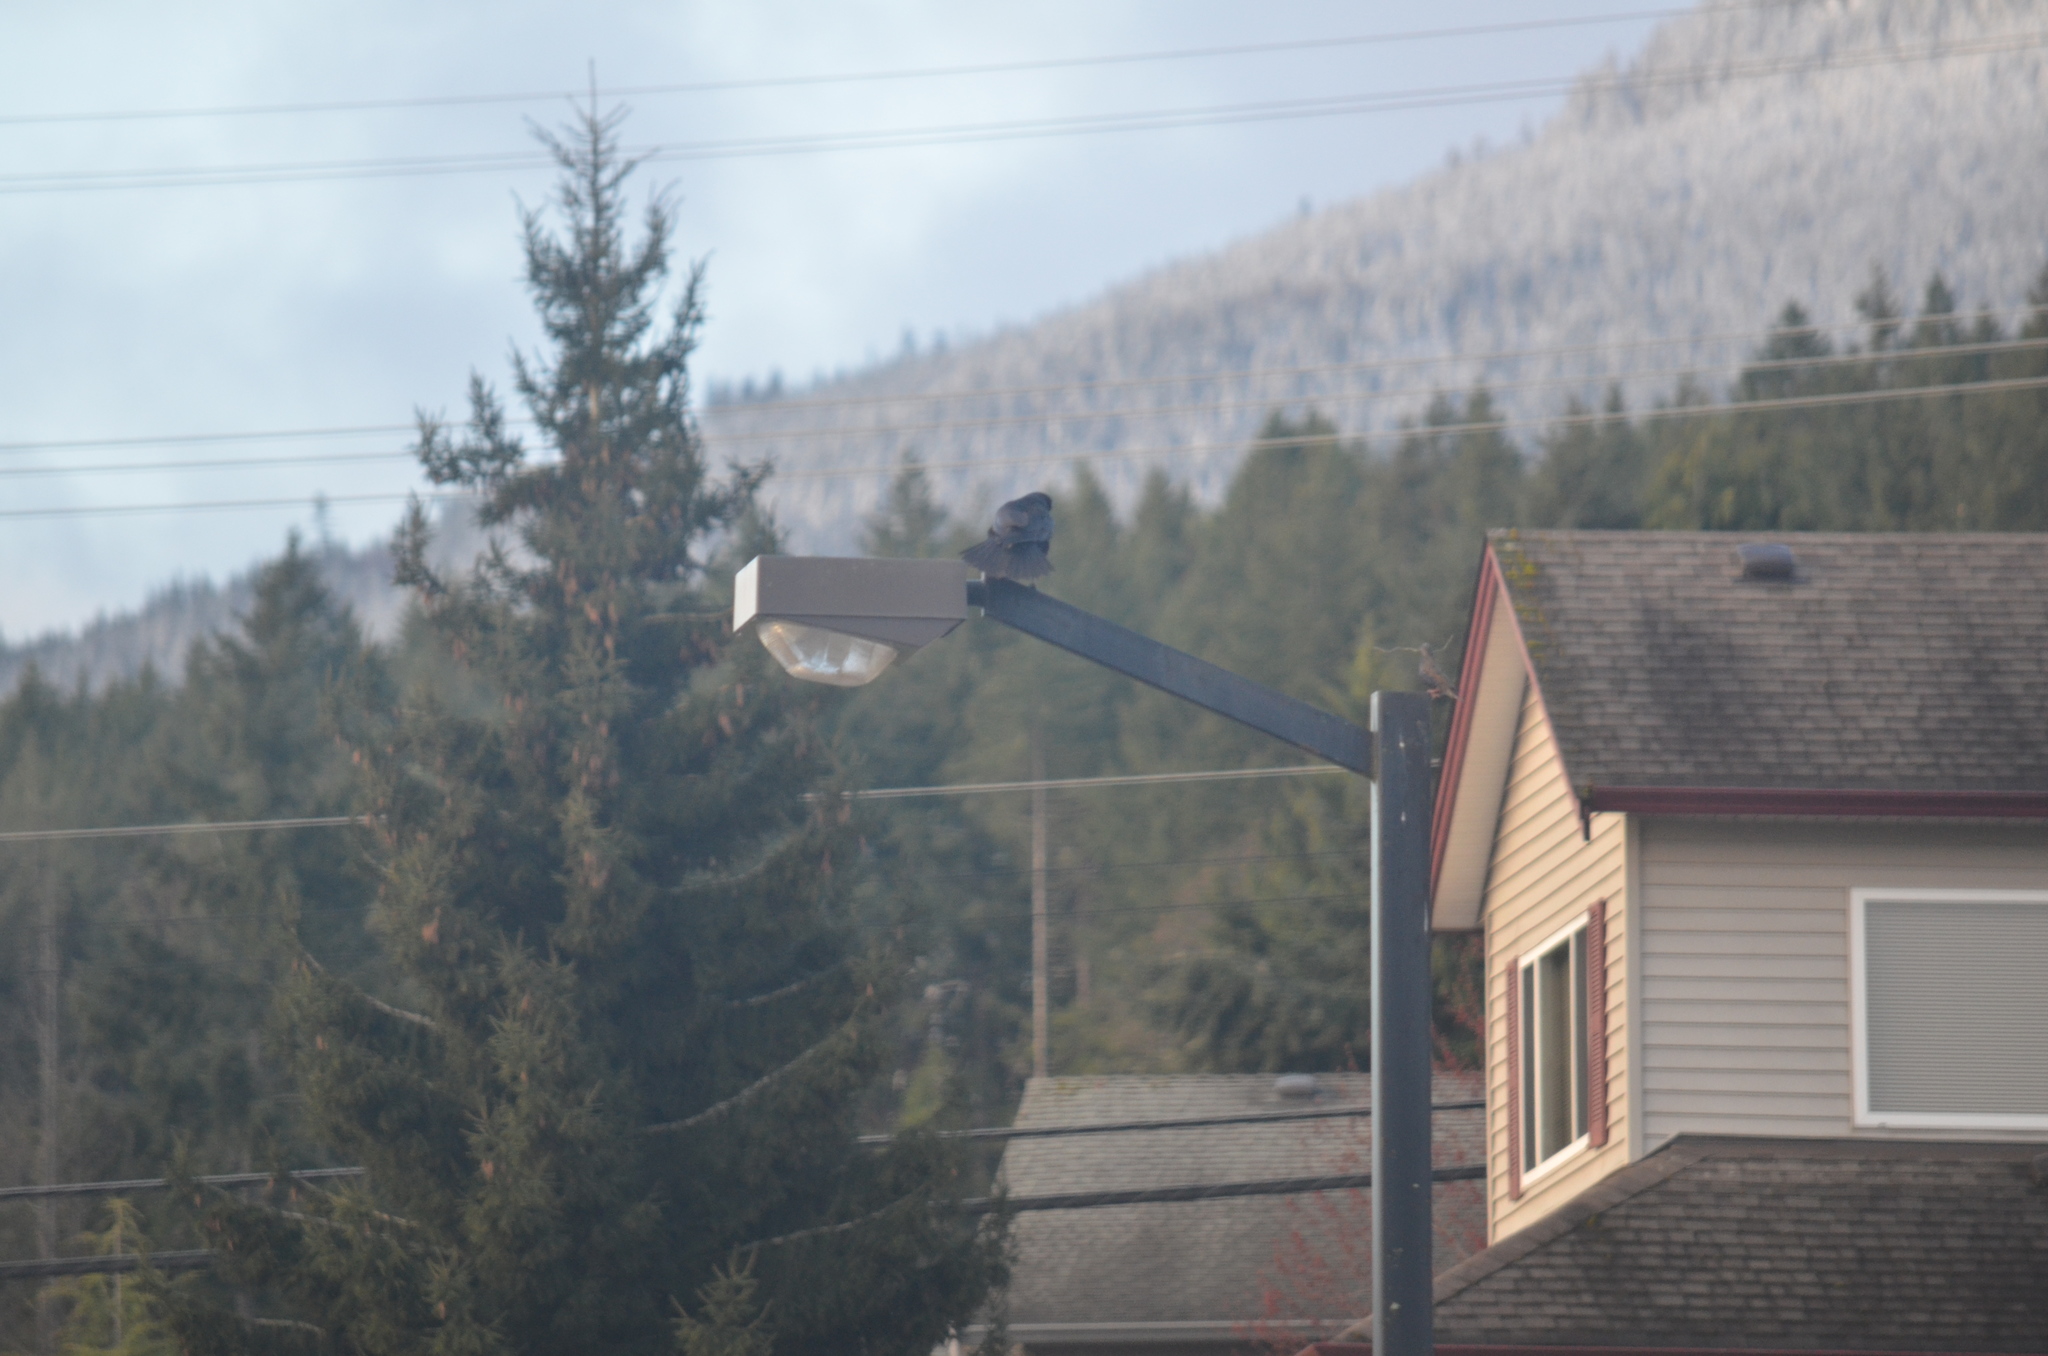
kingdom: Animalia
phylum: Chordata
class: Aves
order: Passeriformes
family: Sturnidae
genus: Sturnus
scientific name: Sturnus vulgaris
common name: Common starling
